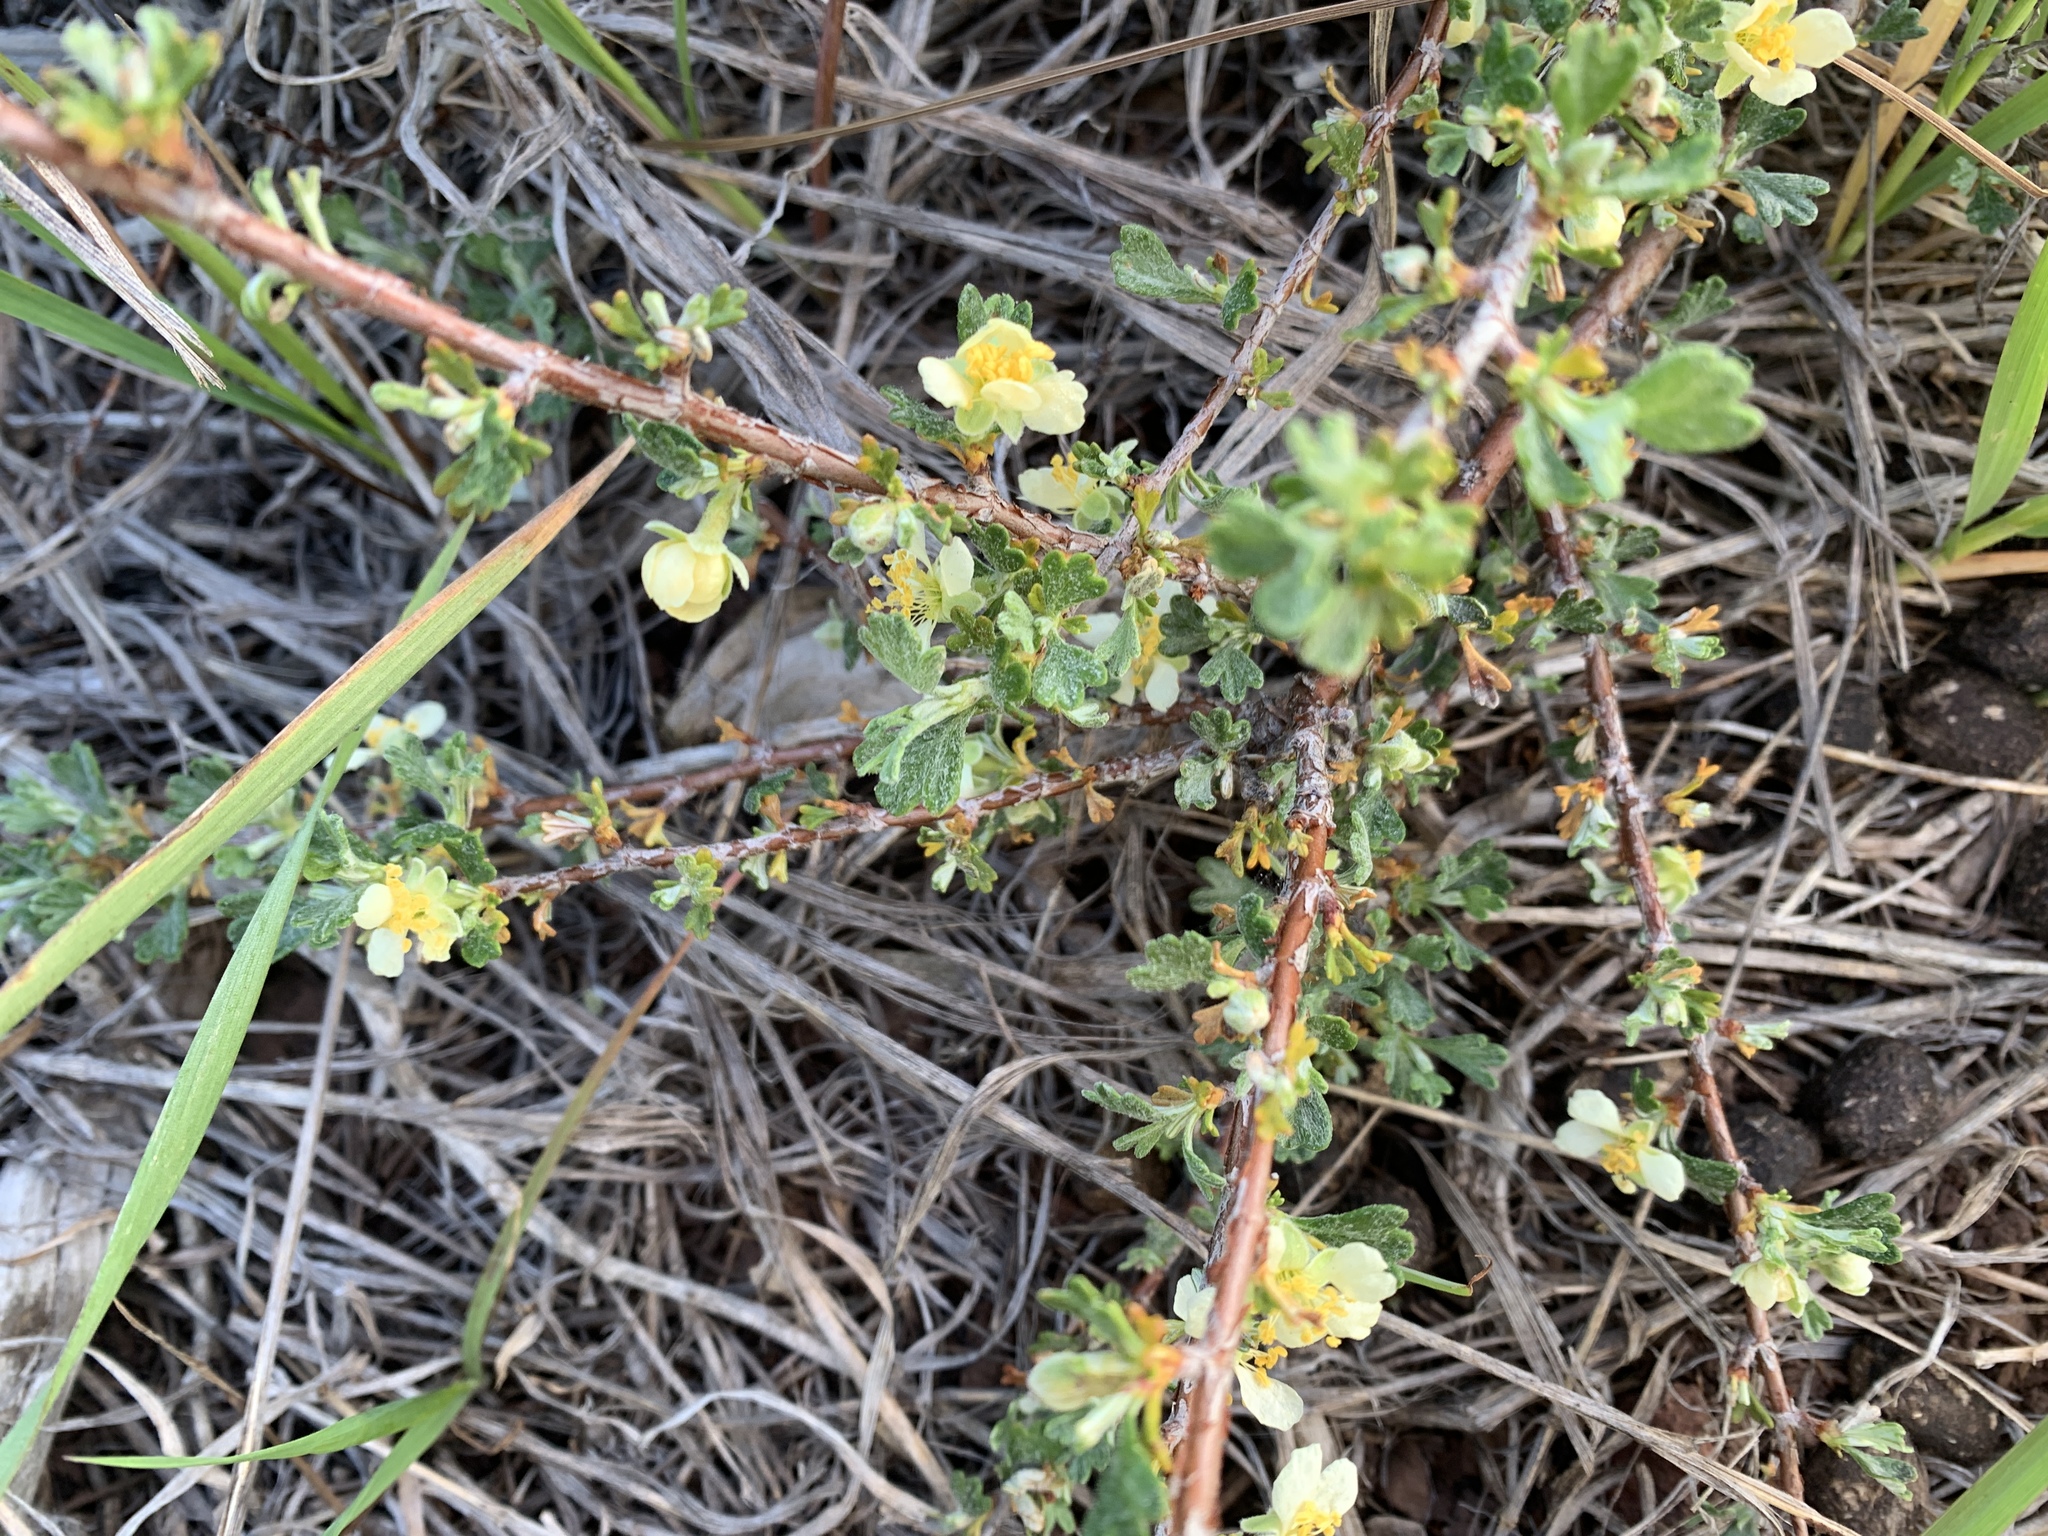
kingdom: Plantae
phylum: Tracheophyta
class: Magnoliopsida
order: Rosales
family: Rosaceae
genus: Purshia
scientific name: Purshia tridentata
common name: Antelope bitterbrush
